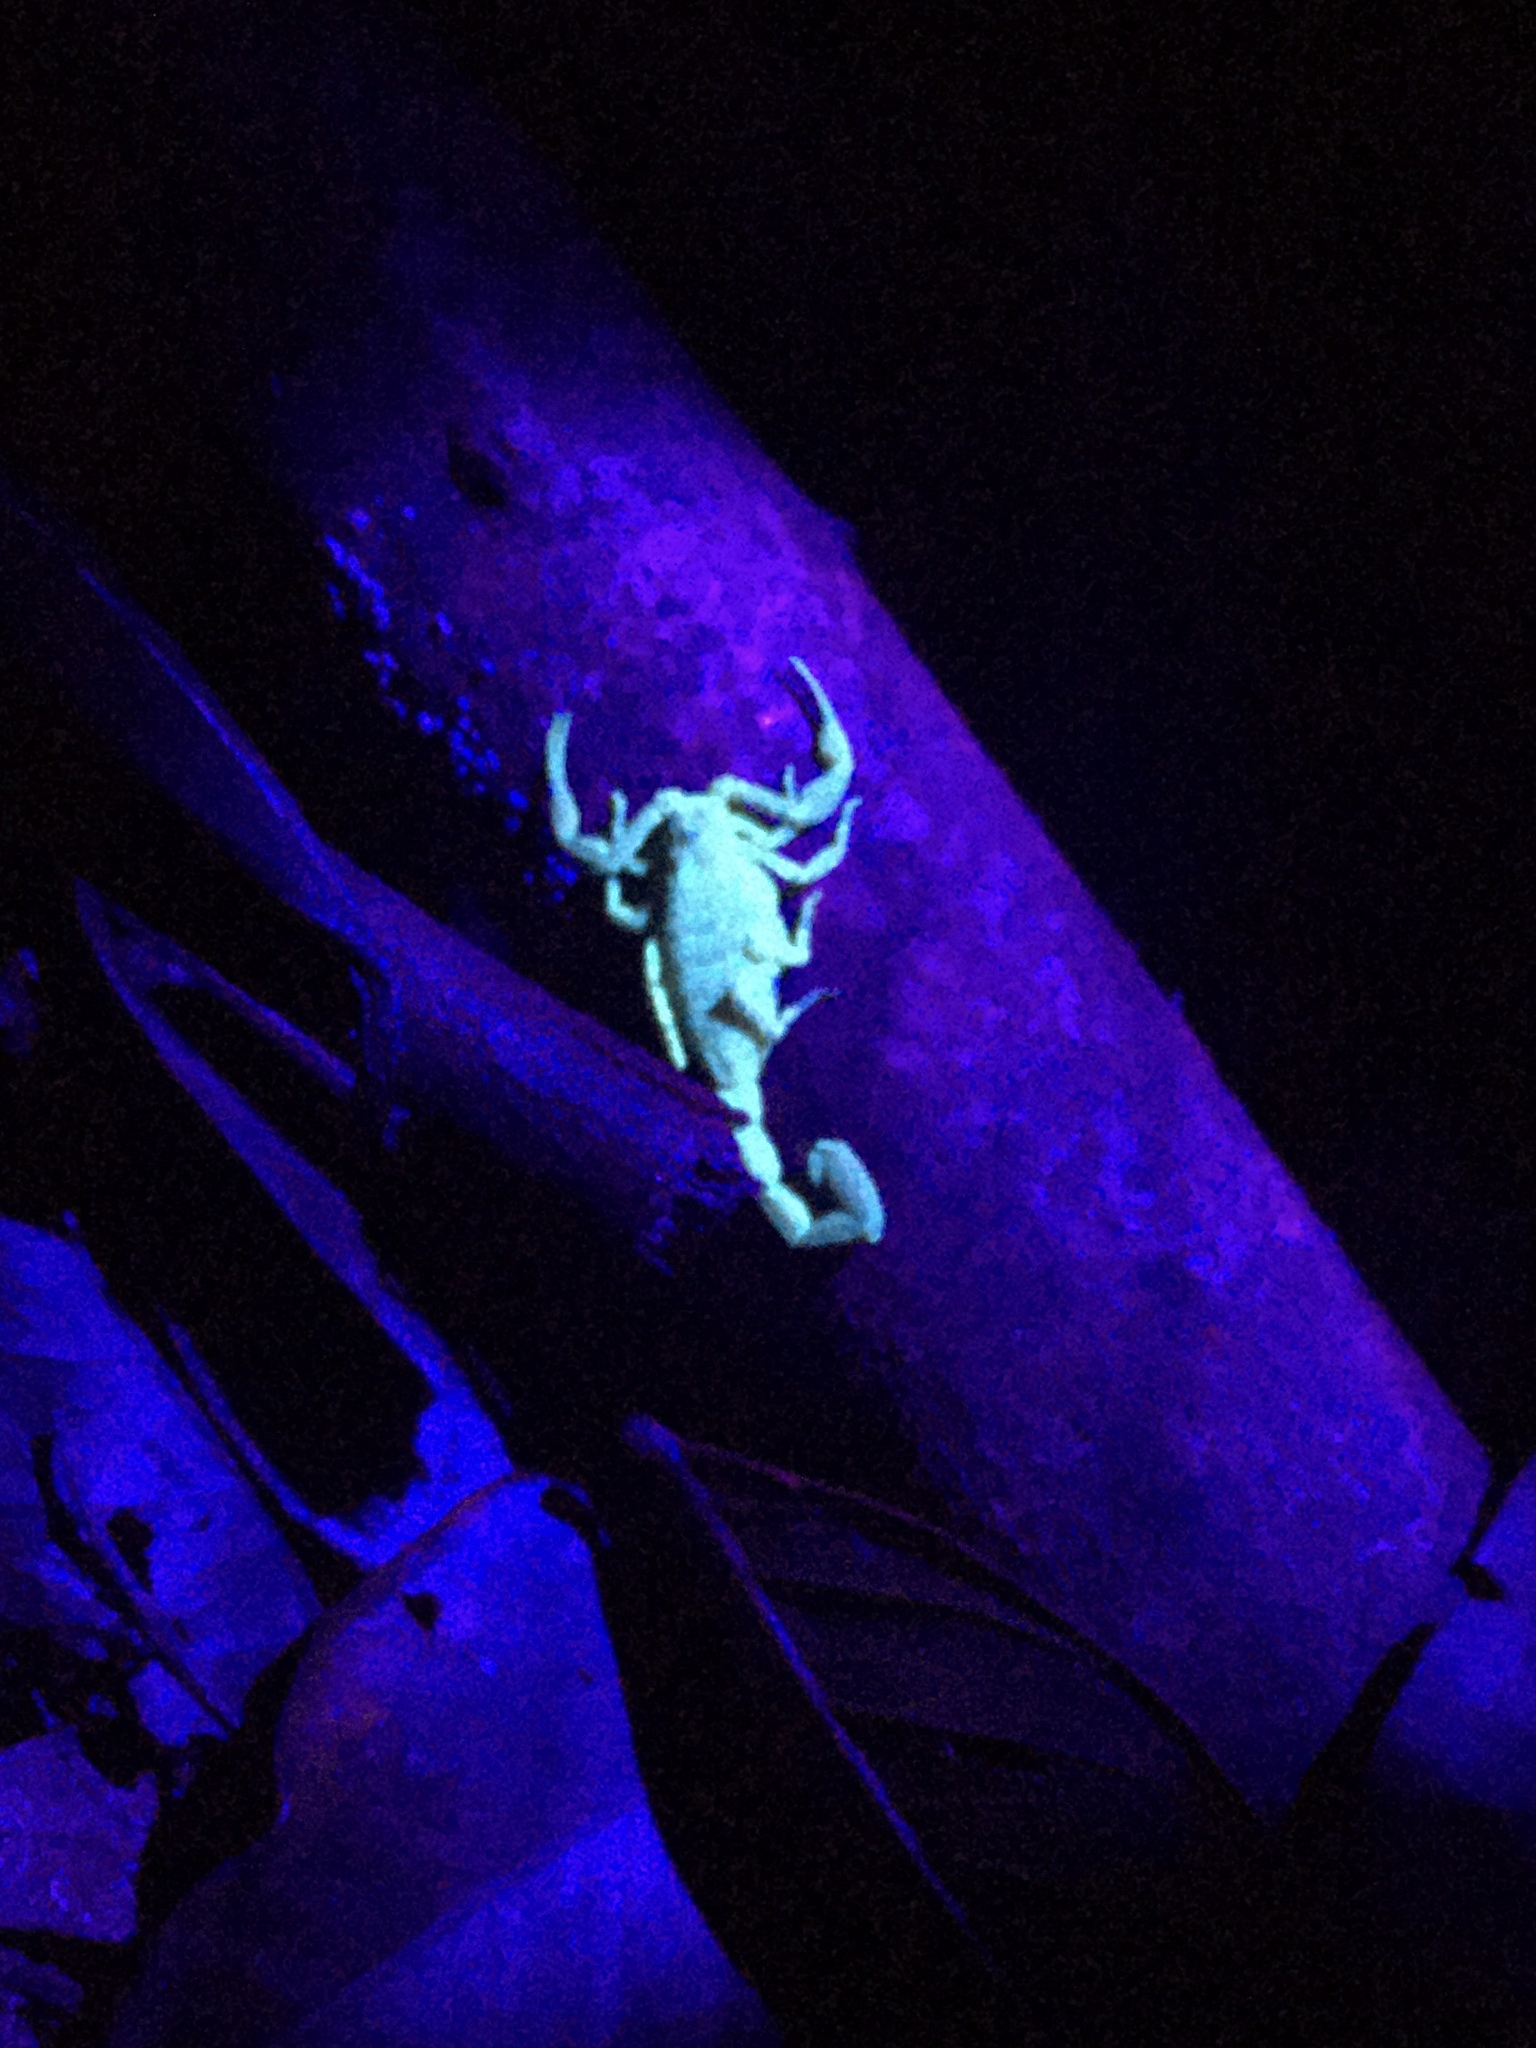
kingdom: Animalia
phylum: Arthropoda
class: Arachnida
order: Scorpiones
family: Buthidae
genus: Tityus
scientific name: Tityus pusillus
